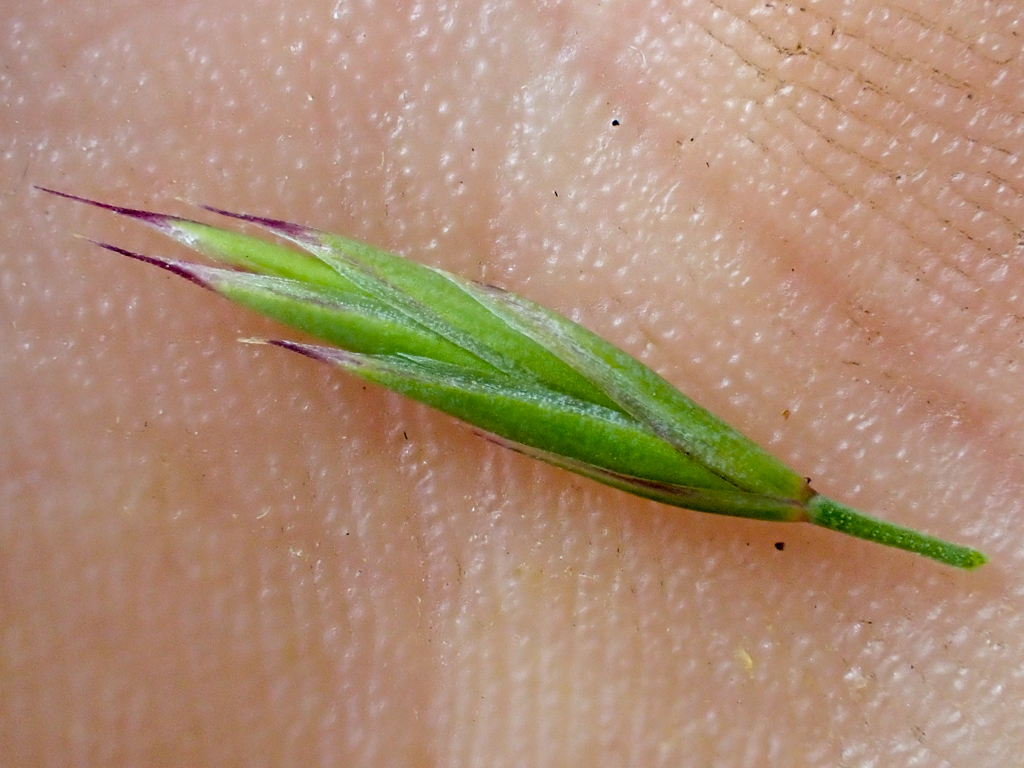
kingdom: Plantae
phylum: Tracheophyta
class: Liliopsida
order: Poales
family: Poaceae
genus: Festuca
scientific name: Festuca californica
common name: California fescue
